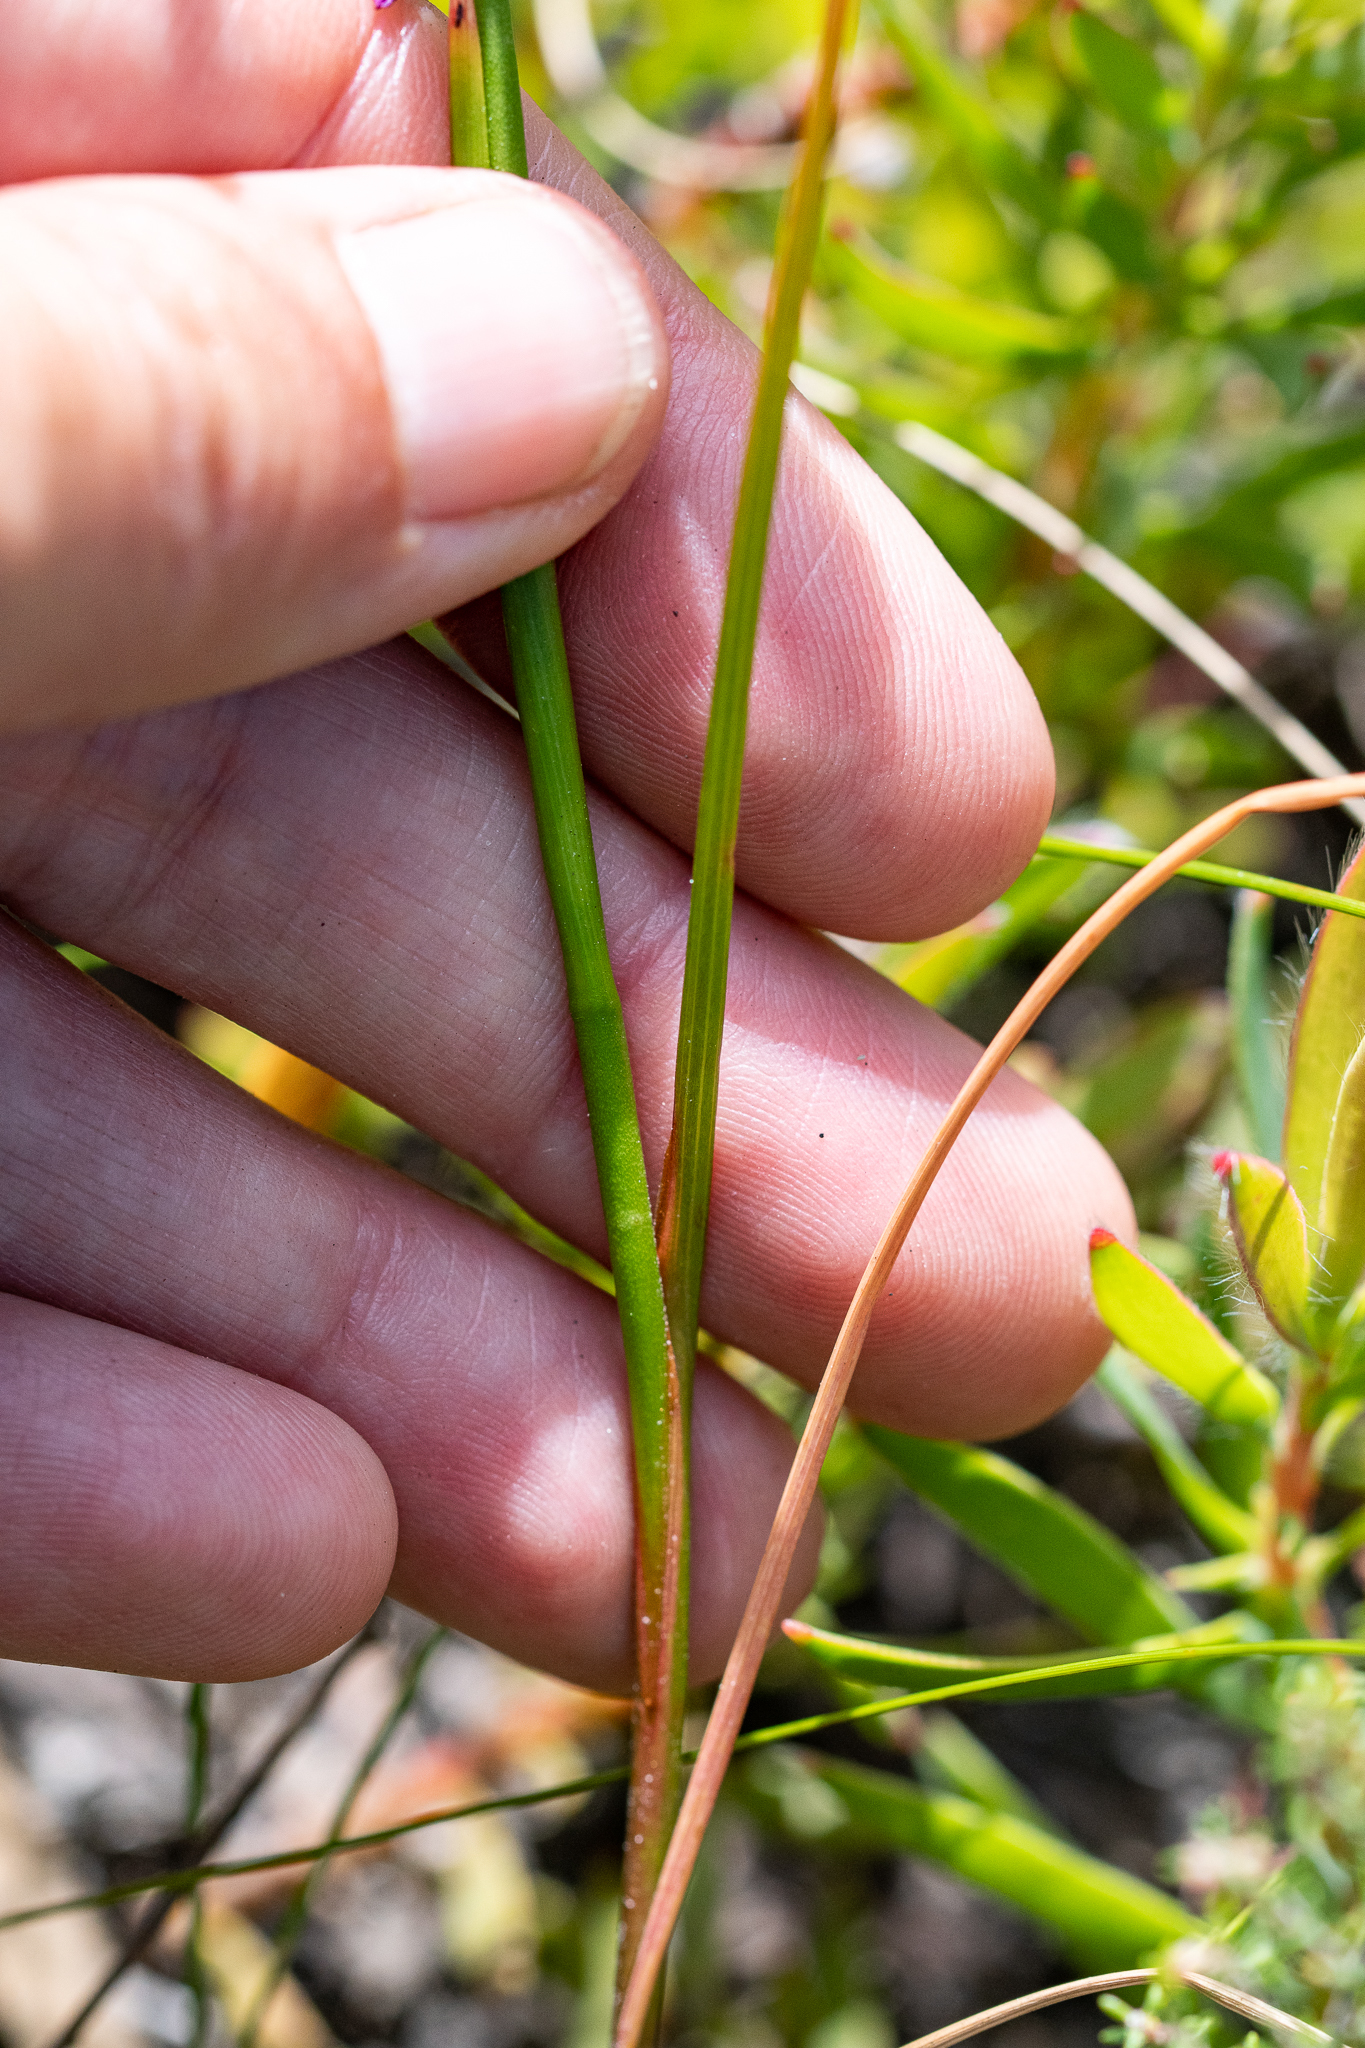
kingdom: Plantae
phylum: Tracheophyta
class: Liliopsida
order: Asparagales
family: Iridaceae
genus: Thereianthus
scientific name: Thereianthus bracteolatus
